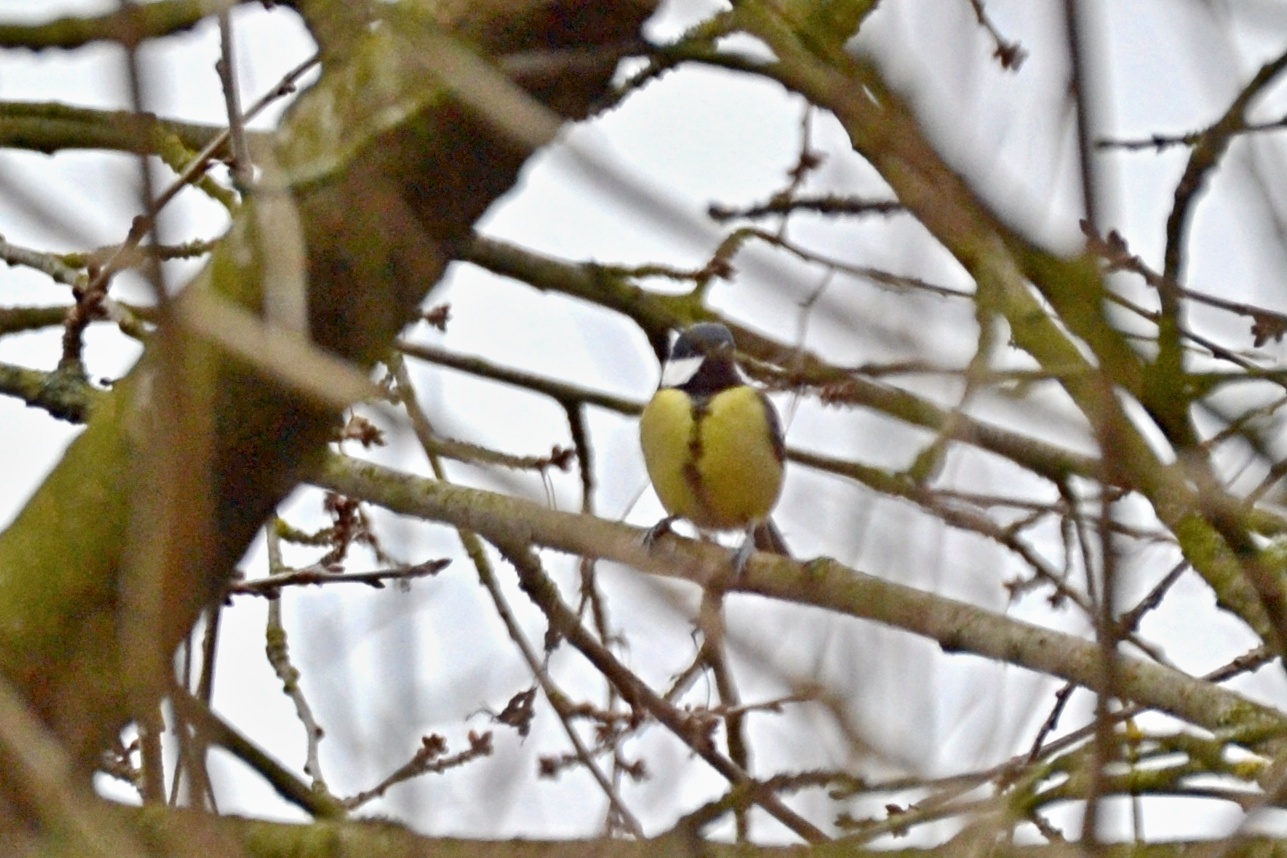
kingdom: Animalia
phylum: Chordata
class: Aves
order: Passeriformes
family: Paridae
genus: Parus
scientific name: Parus major
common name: Great tit
